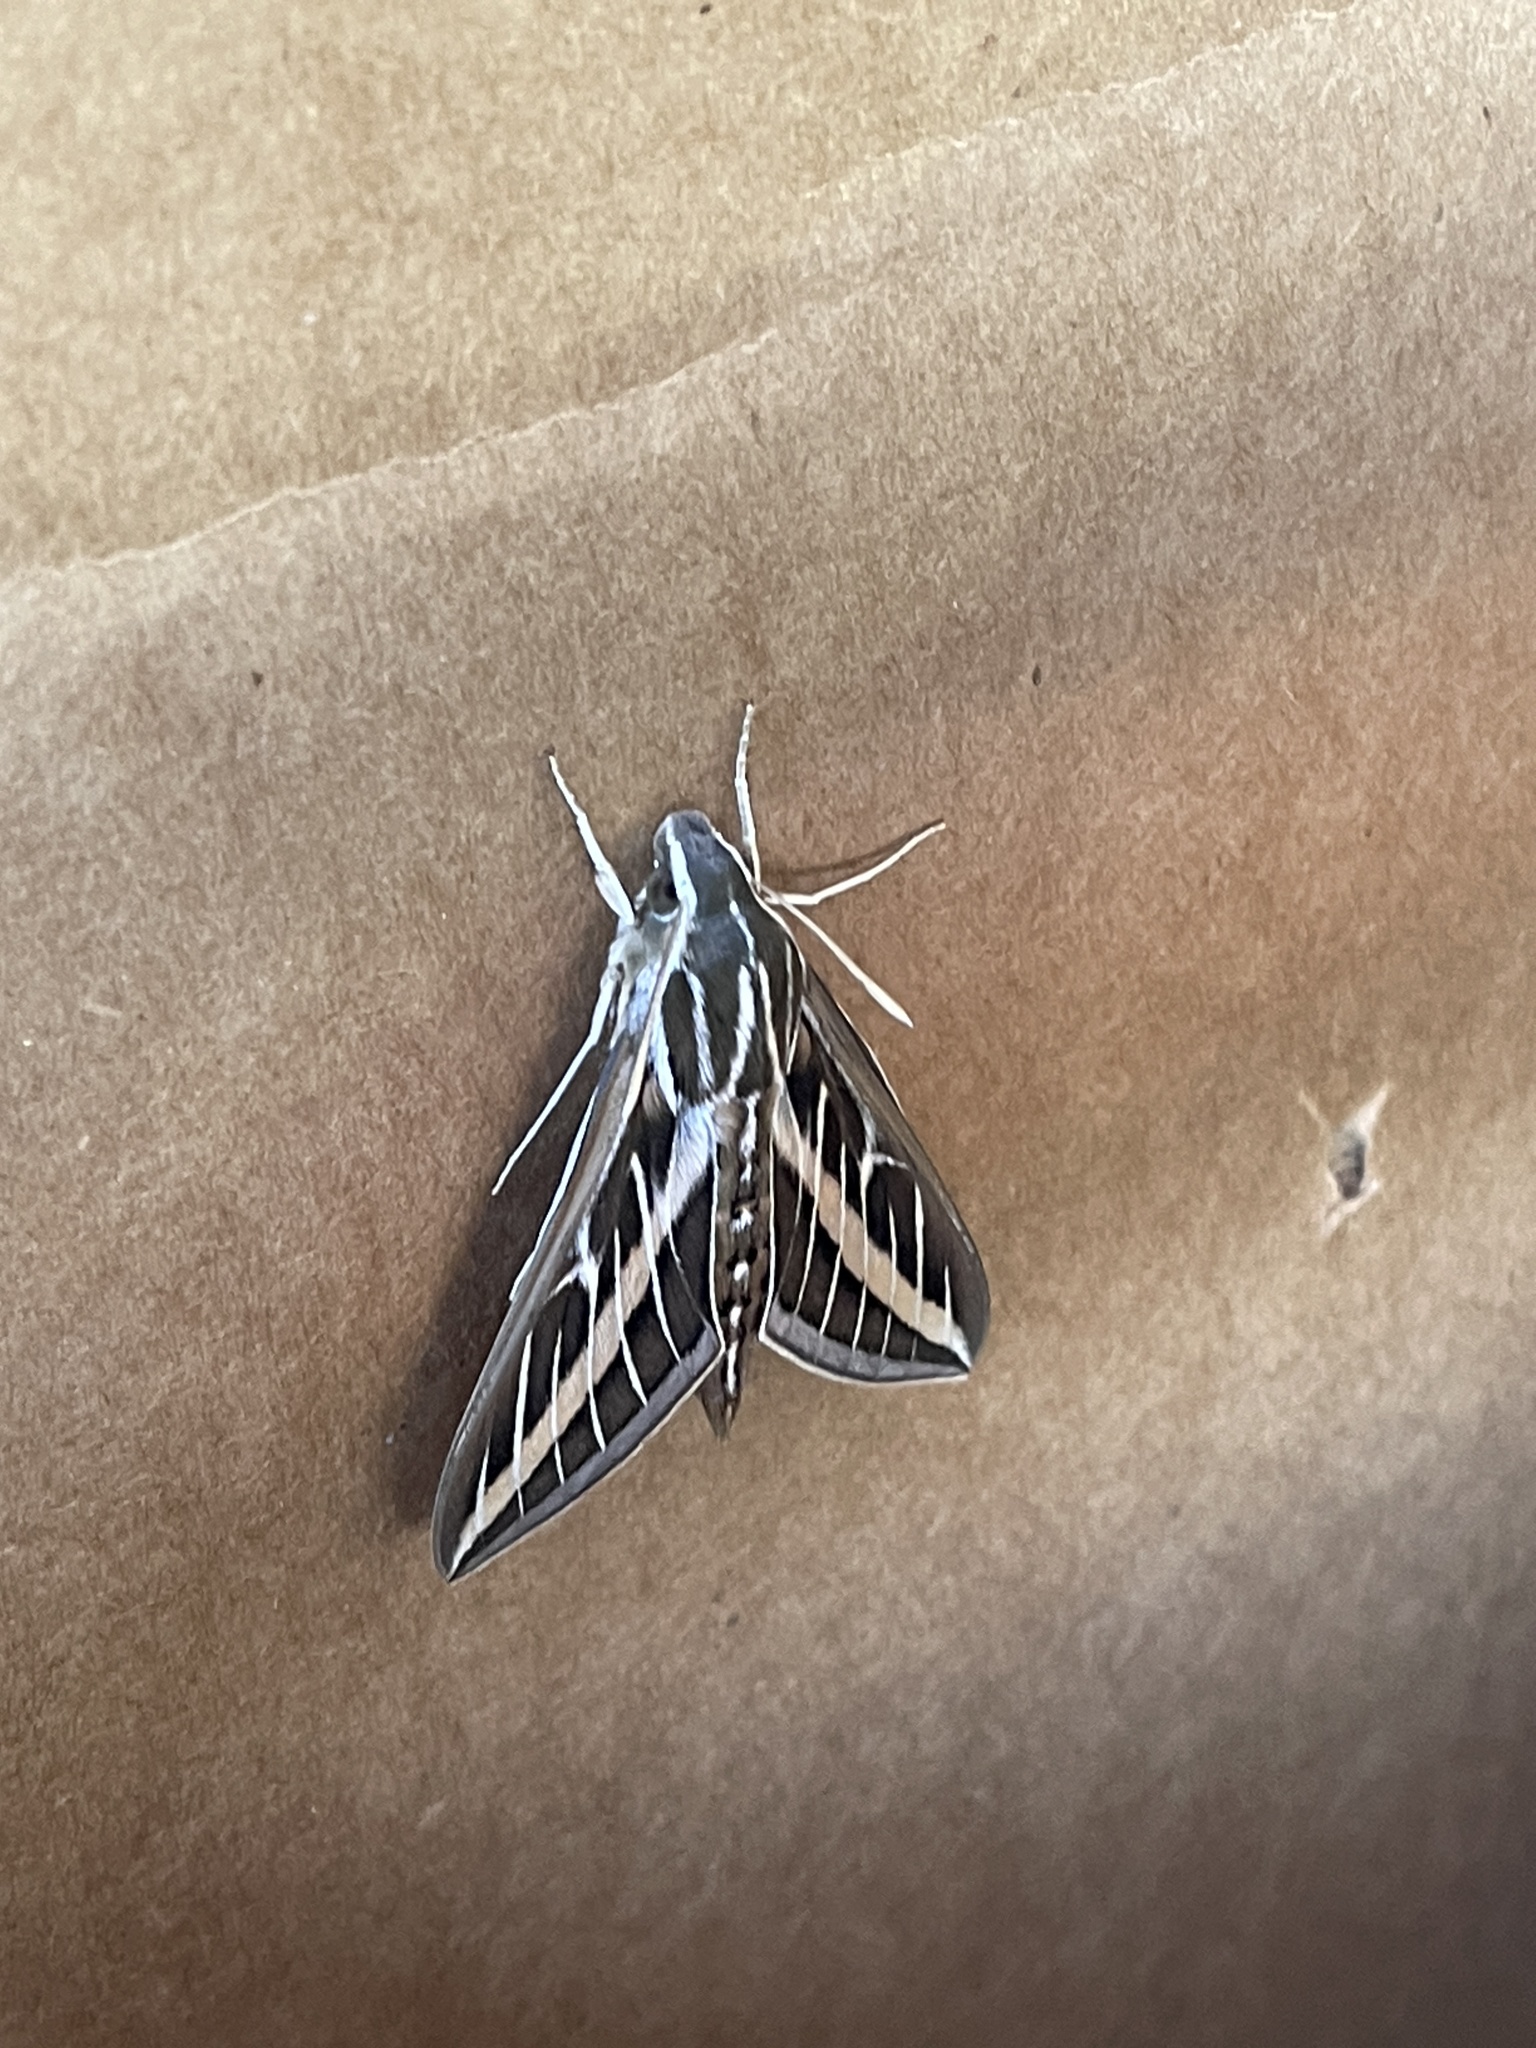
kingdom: Animalia
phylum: Arthropoda
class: Insecta
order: Lepidoptera
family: Sphingidae
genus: Hyles
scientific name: Hyles lineata
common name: White-lined sphinx
